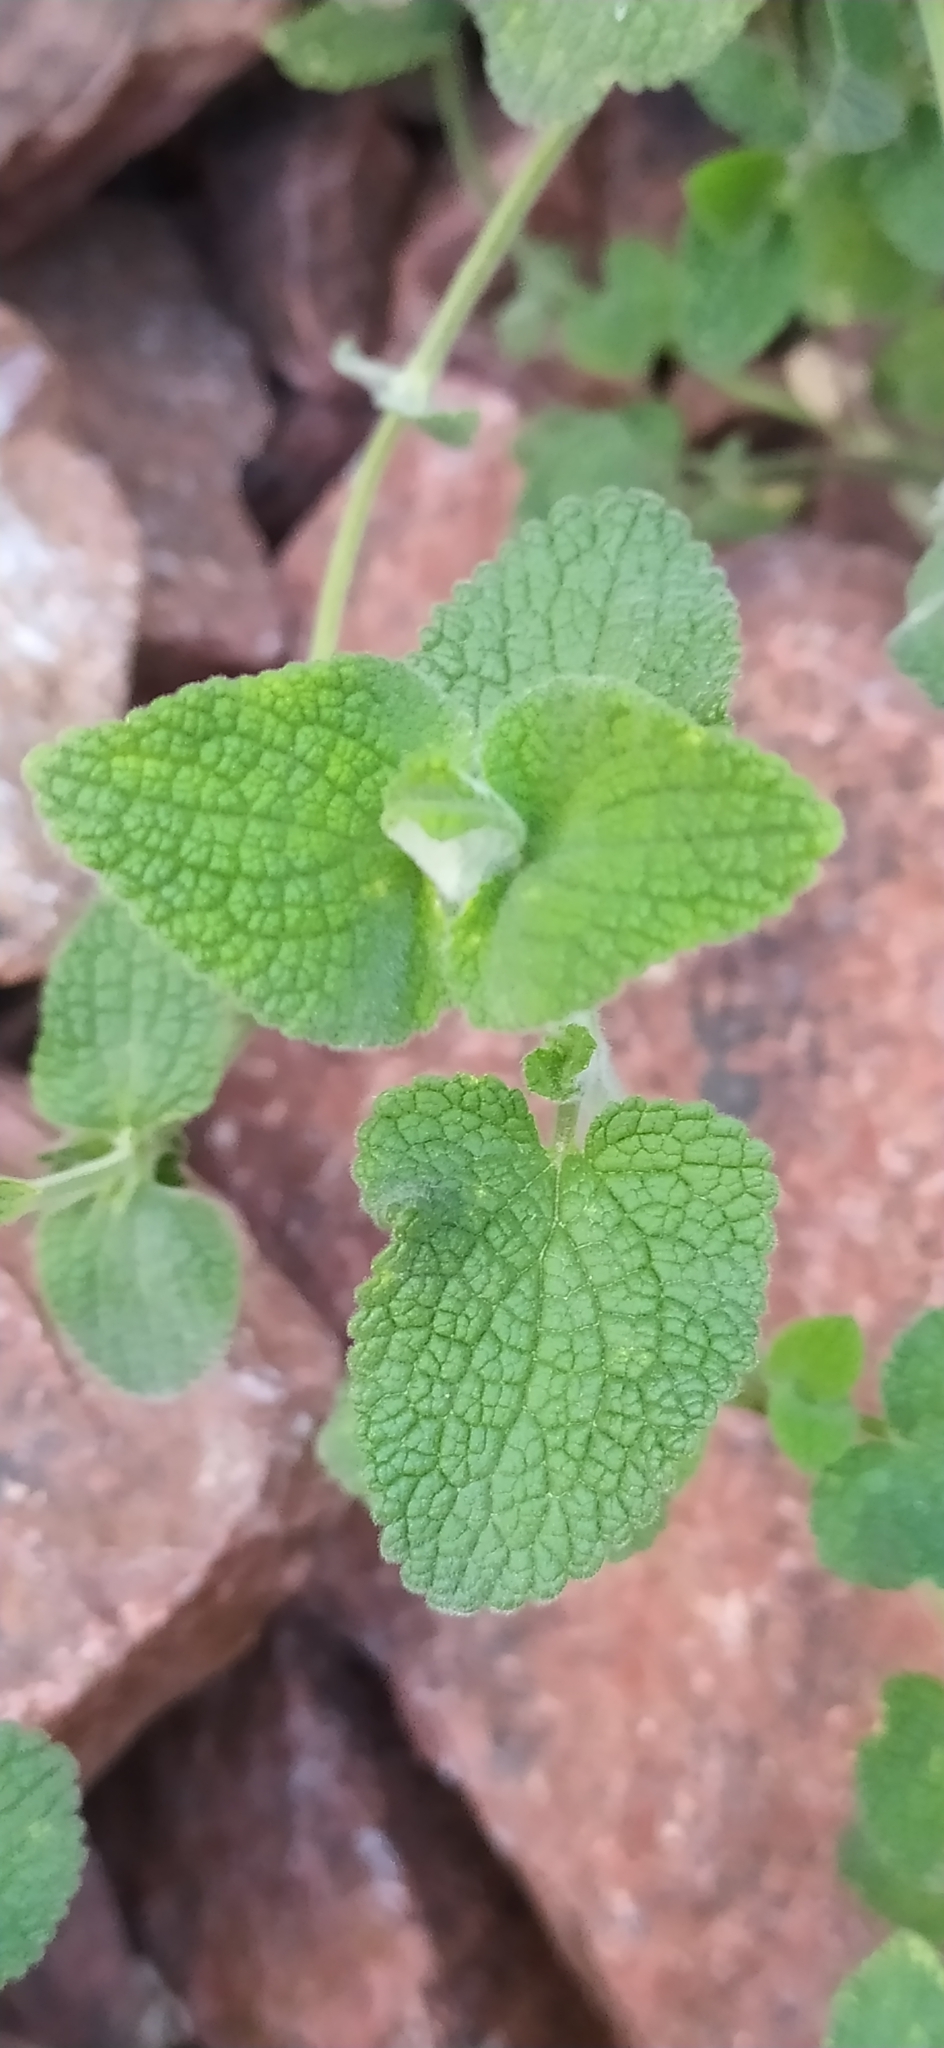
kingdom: Plantae
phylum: Tracheophyta
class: Magnoliopsida
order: Lamiales
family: Lamiaceae
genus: Stachys
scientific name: Stachys hissarica
